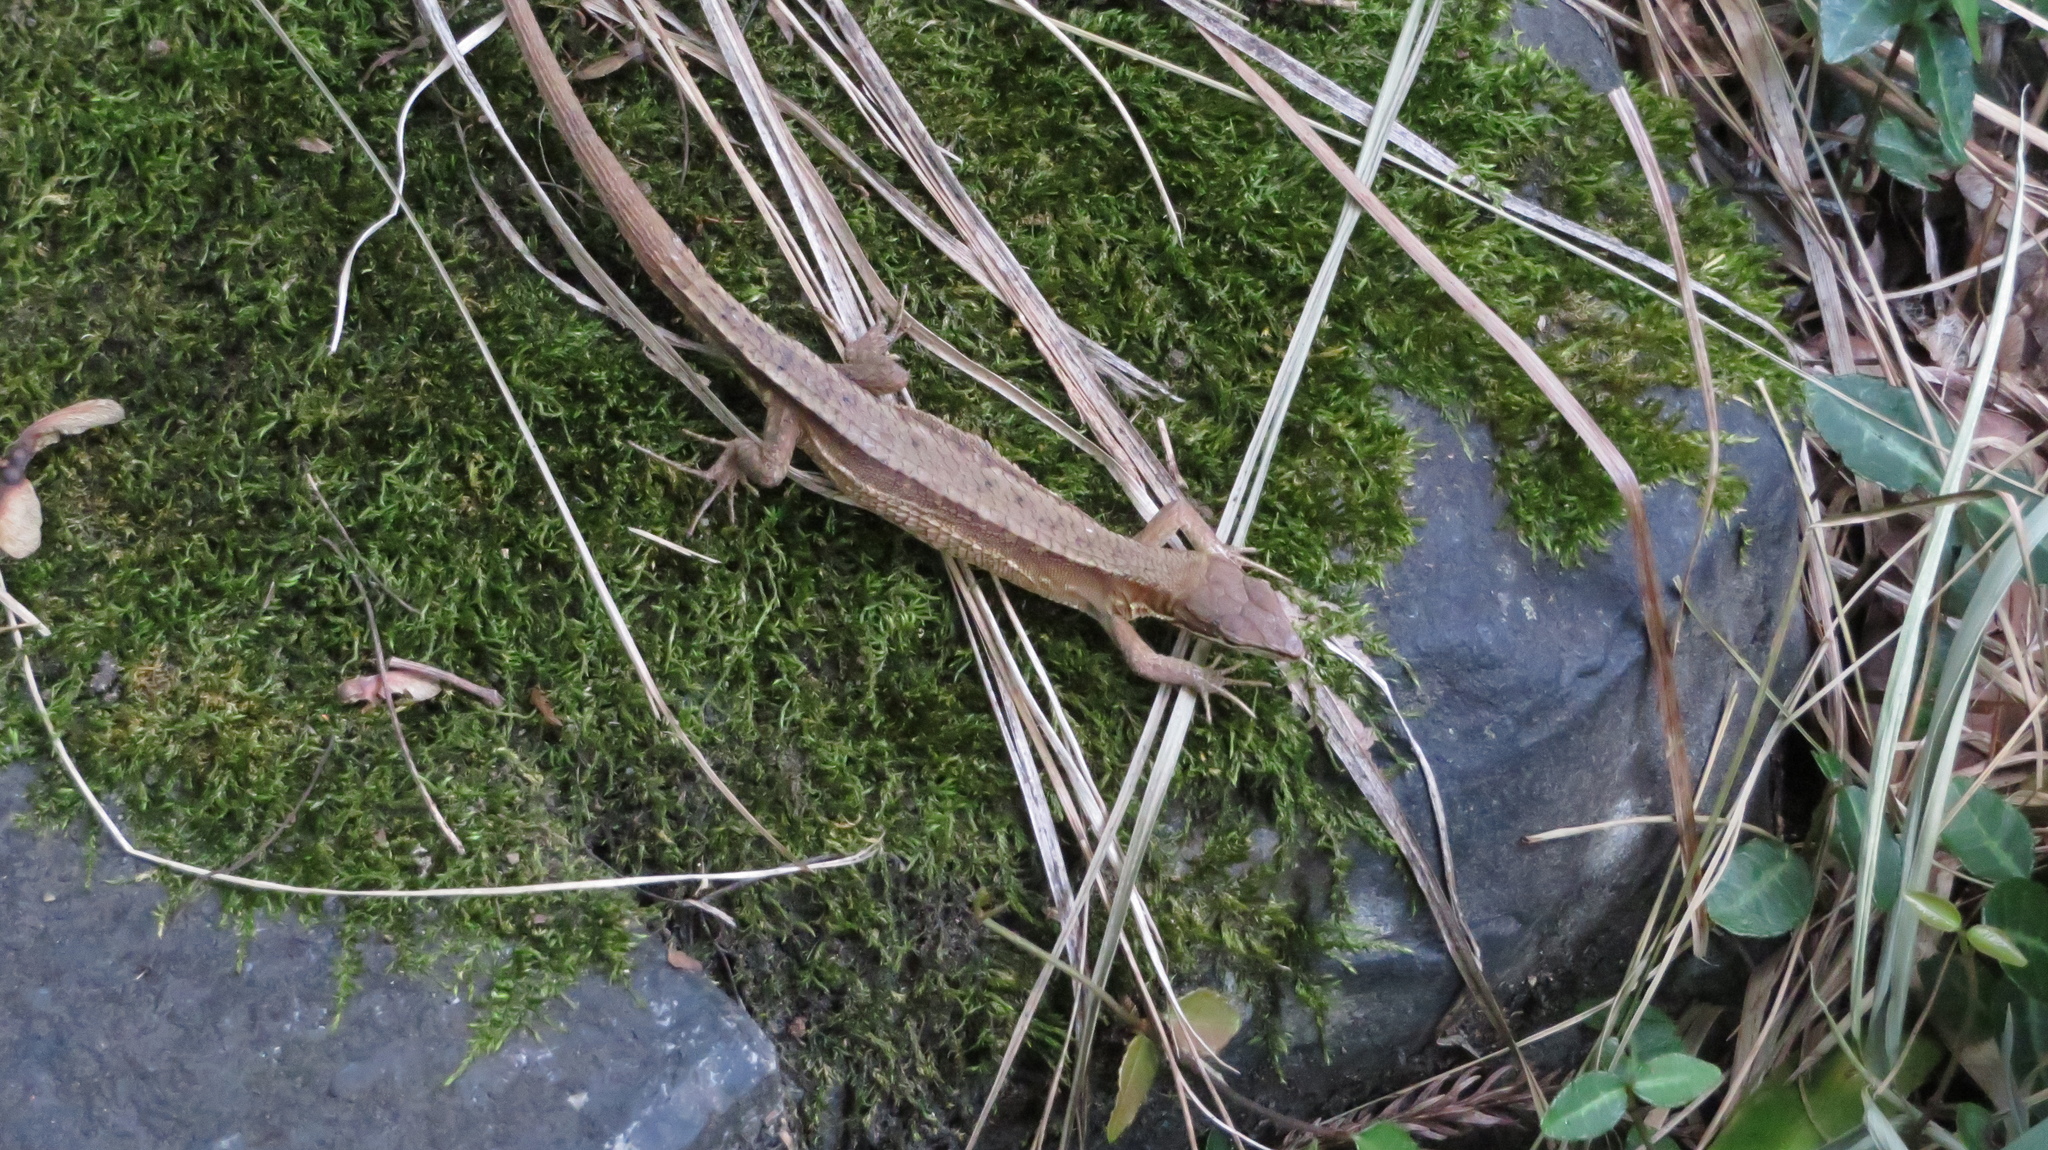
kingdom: Animalia
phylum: Chordata
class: Squamata
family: Lacertidae
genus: Takydromus
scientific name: Takydromus tachydromoides
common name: Japanese grass lizard
